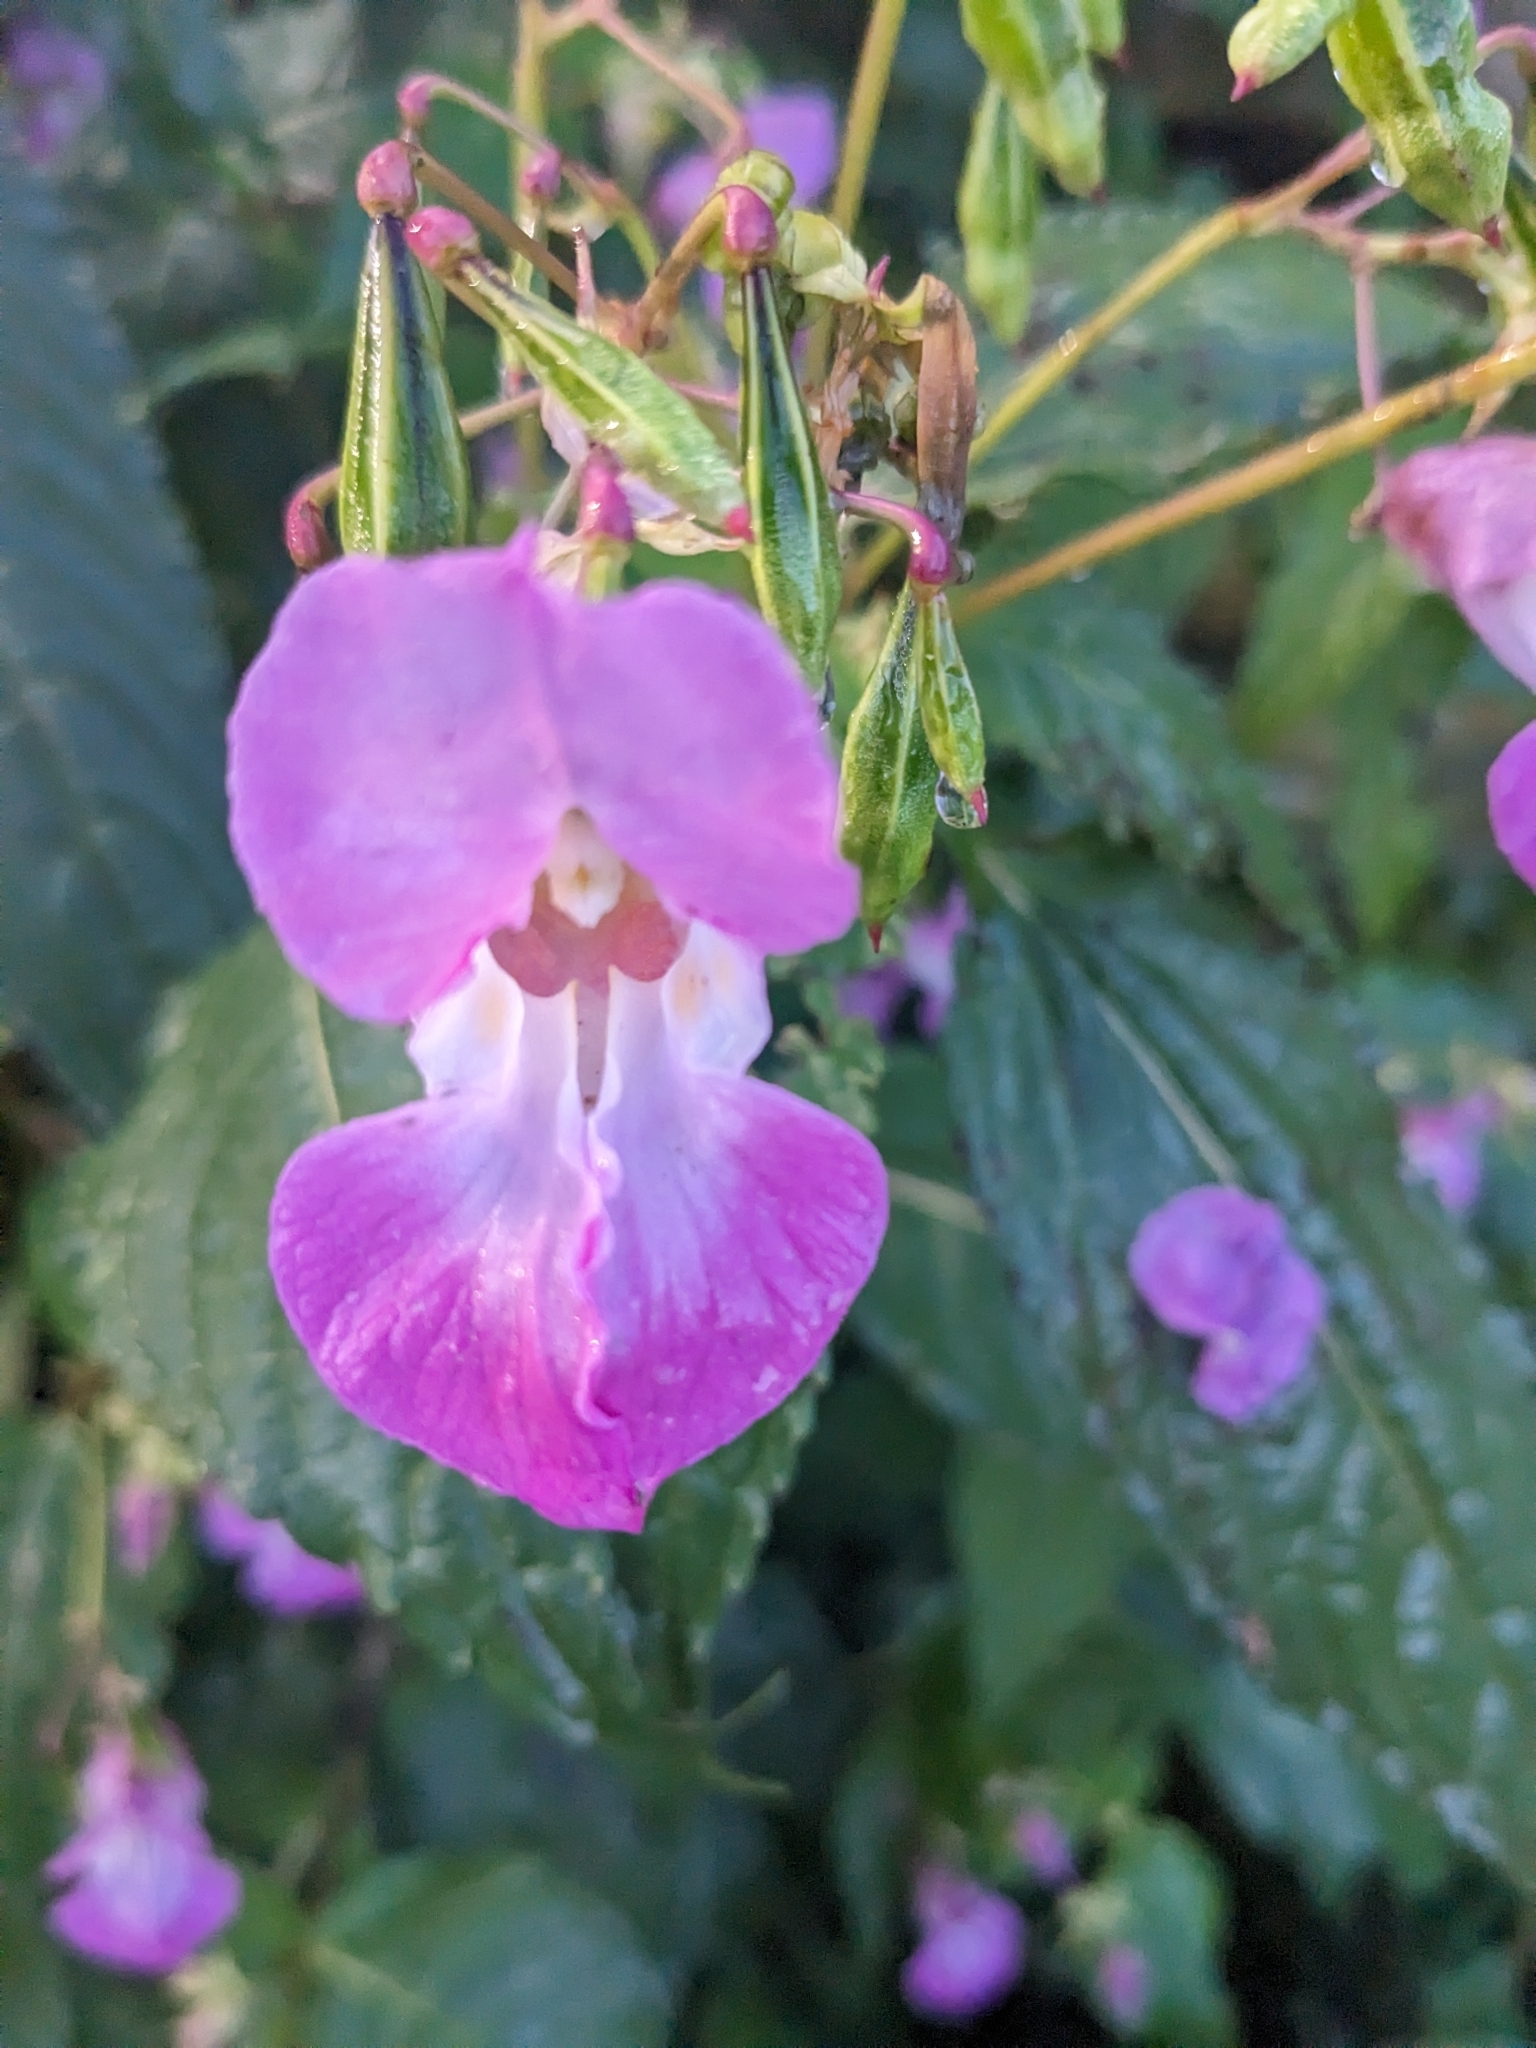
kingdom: Plantae
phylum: Tracheophyta
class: Magnoliopsida
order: Ericales
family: Balsaminaceae
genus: Impatiens
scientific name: Impatiens glandulifera
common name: Himalayan balsam
